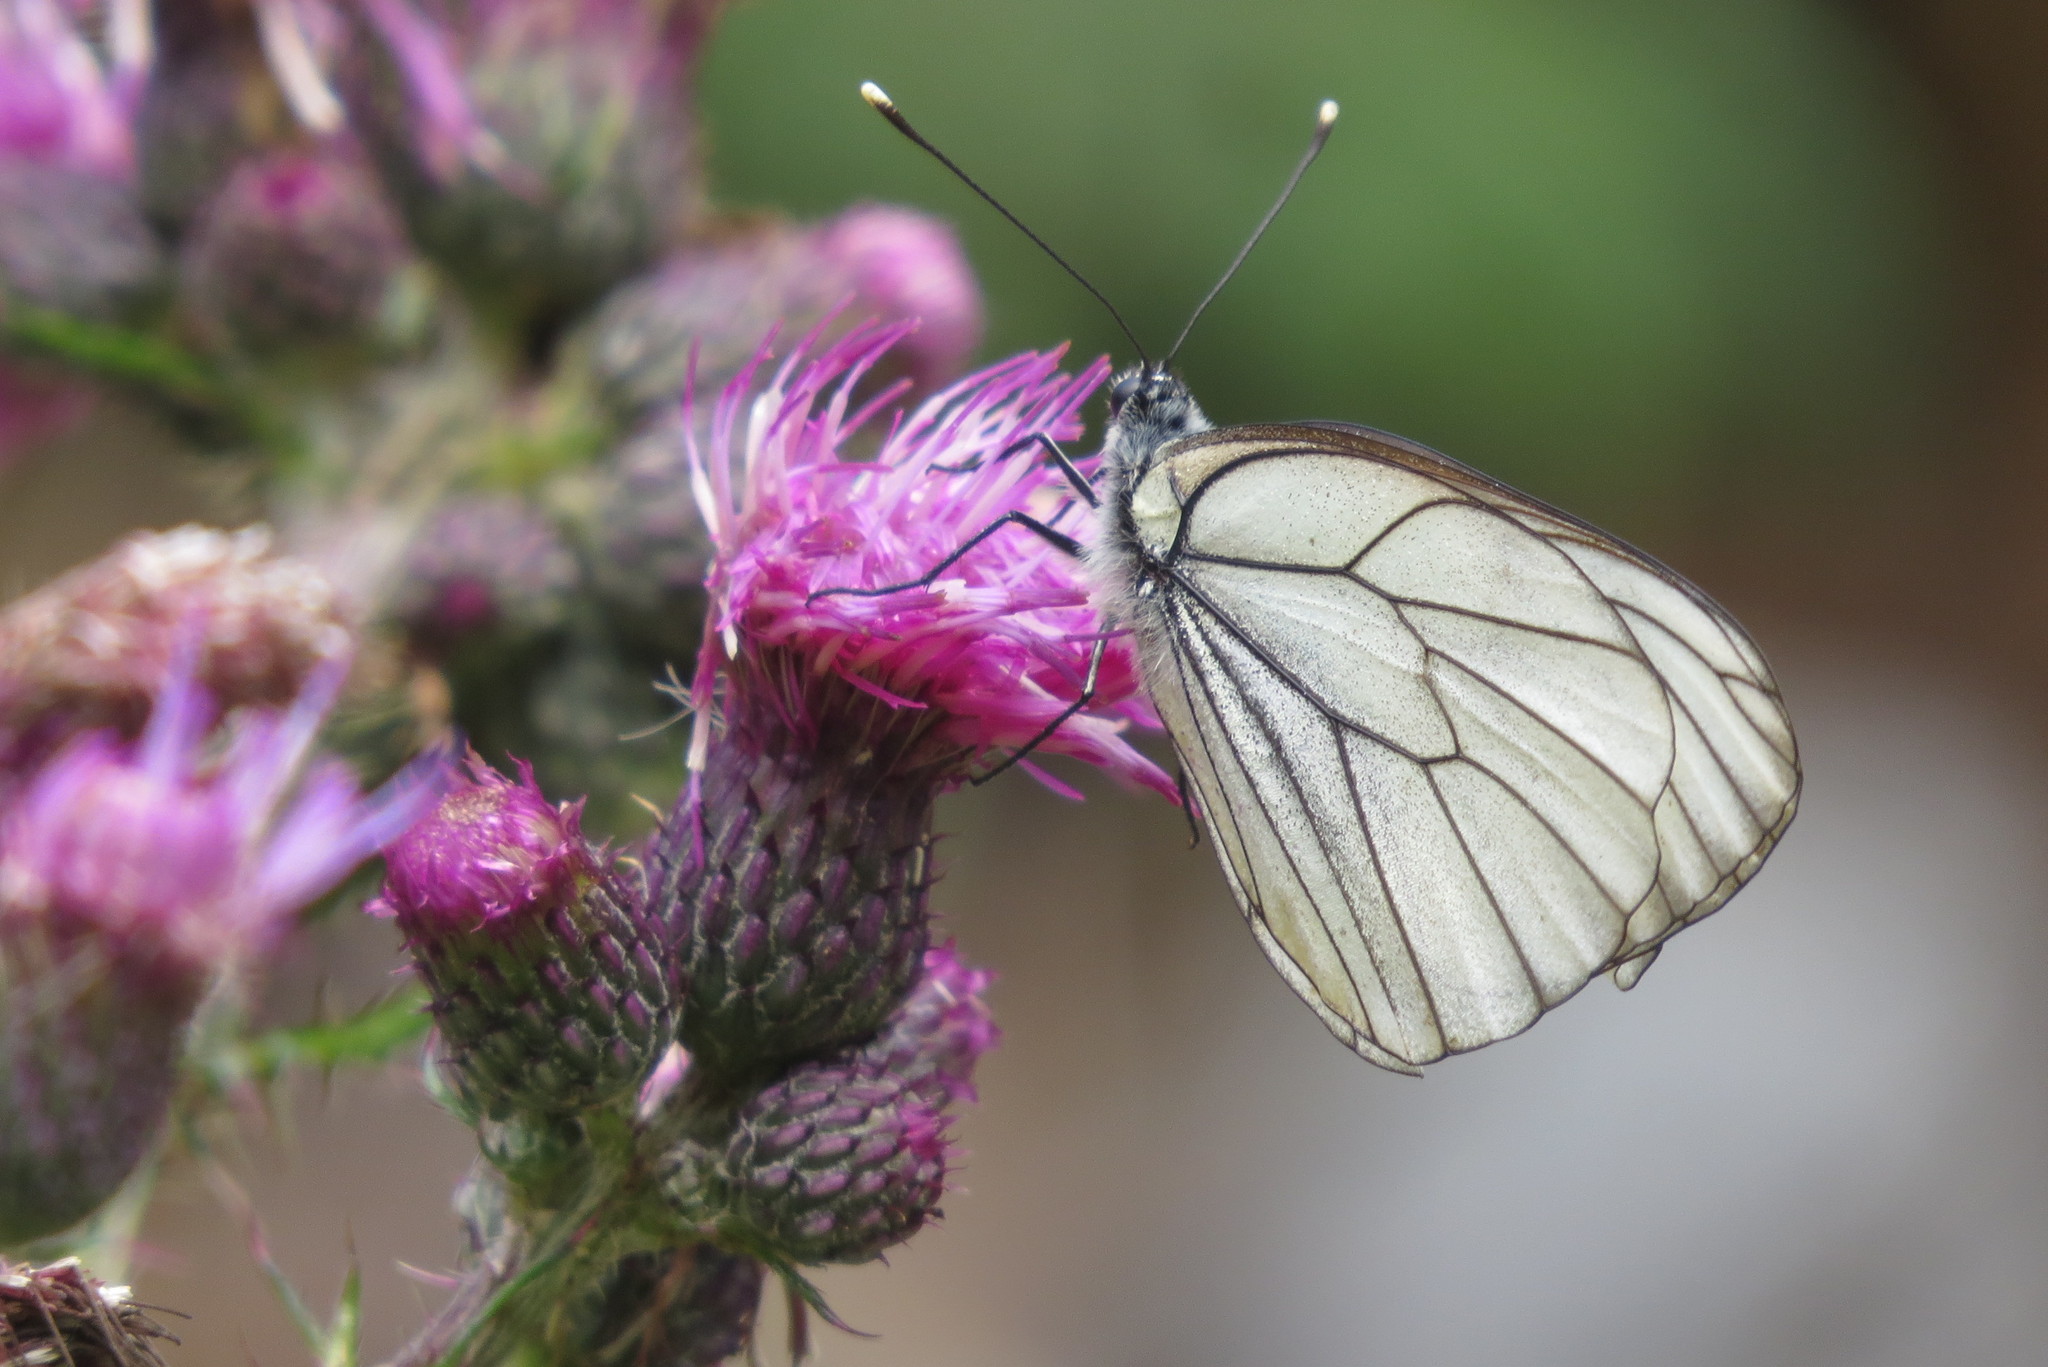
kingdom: Animalia
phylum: Arthropoda
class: Insecta
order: Lepidoptera
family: Pieridae
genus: Aporia
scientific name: Aporia crataegi
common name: Black-veined white
